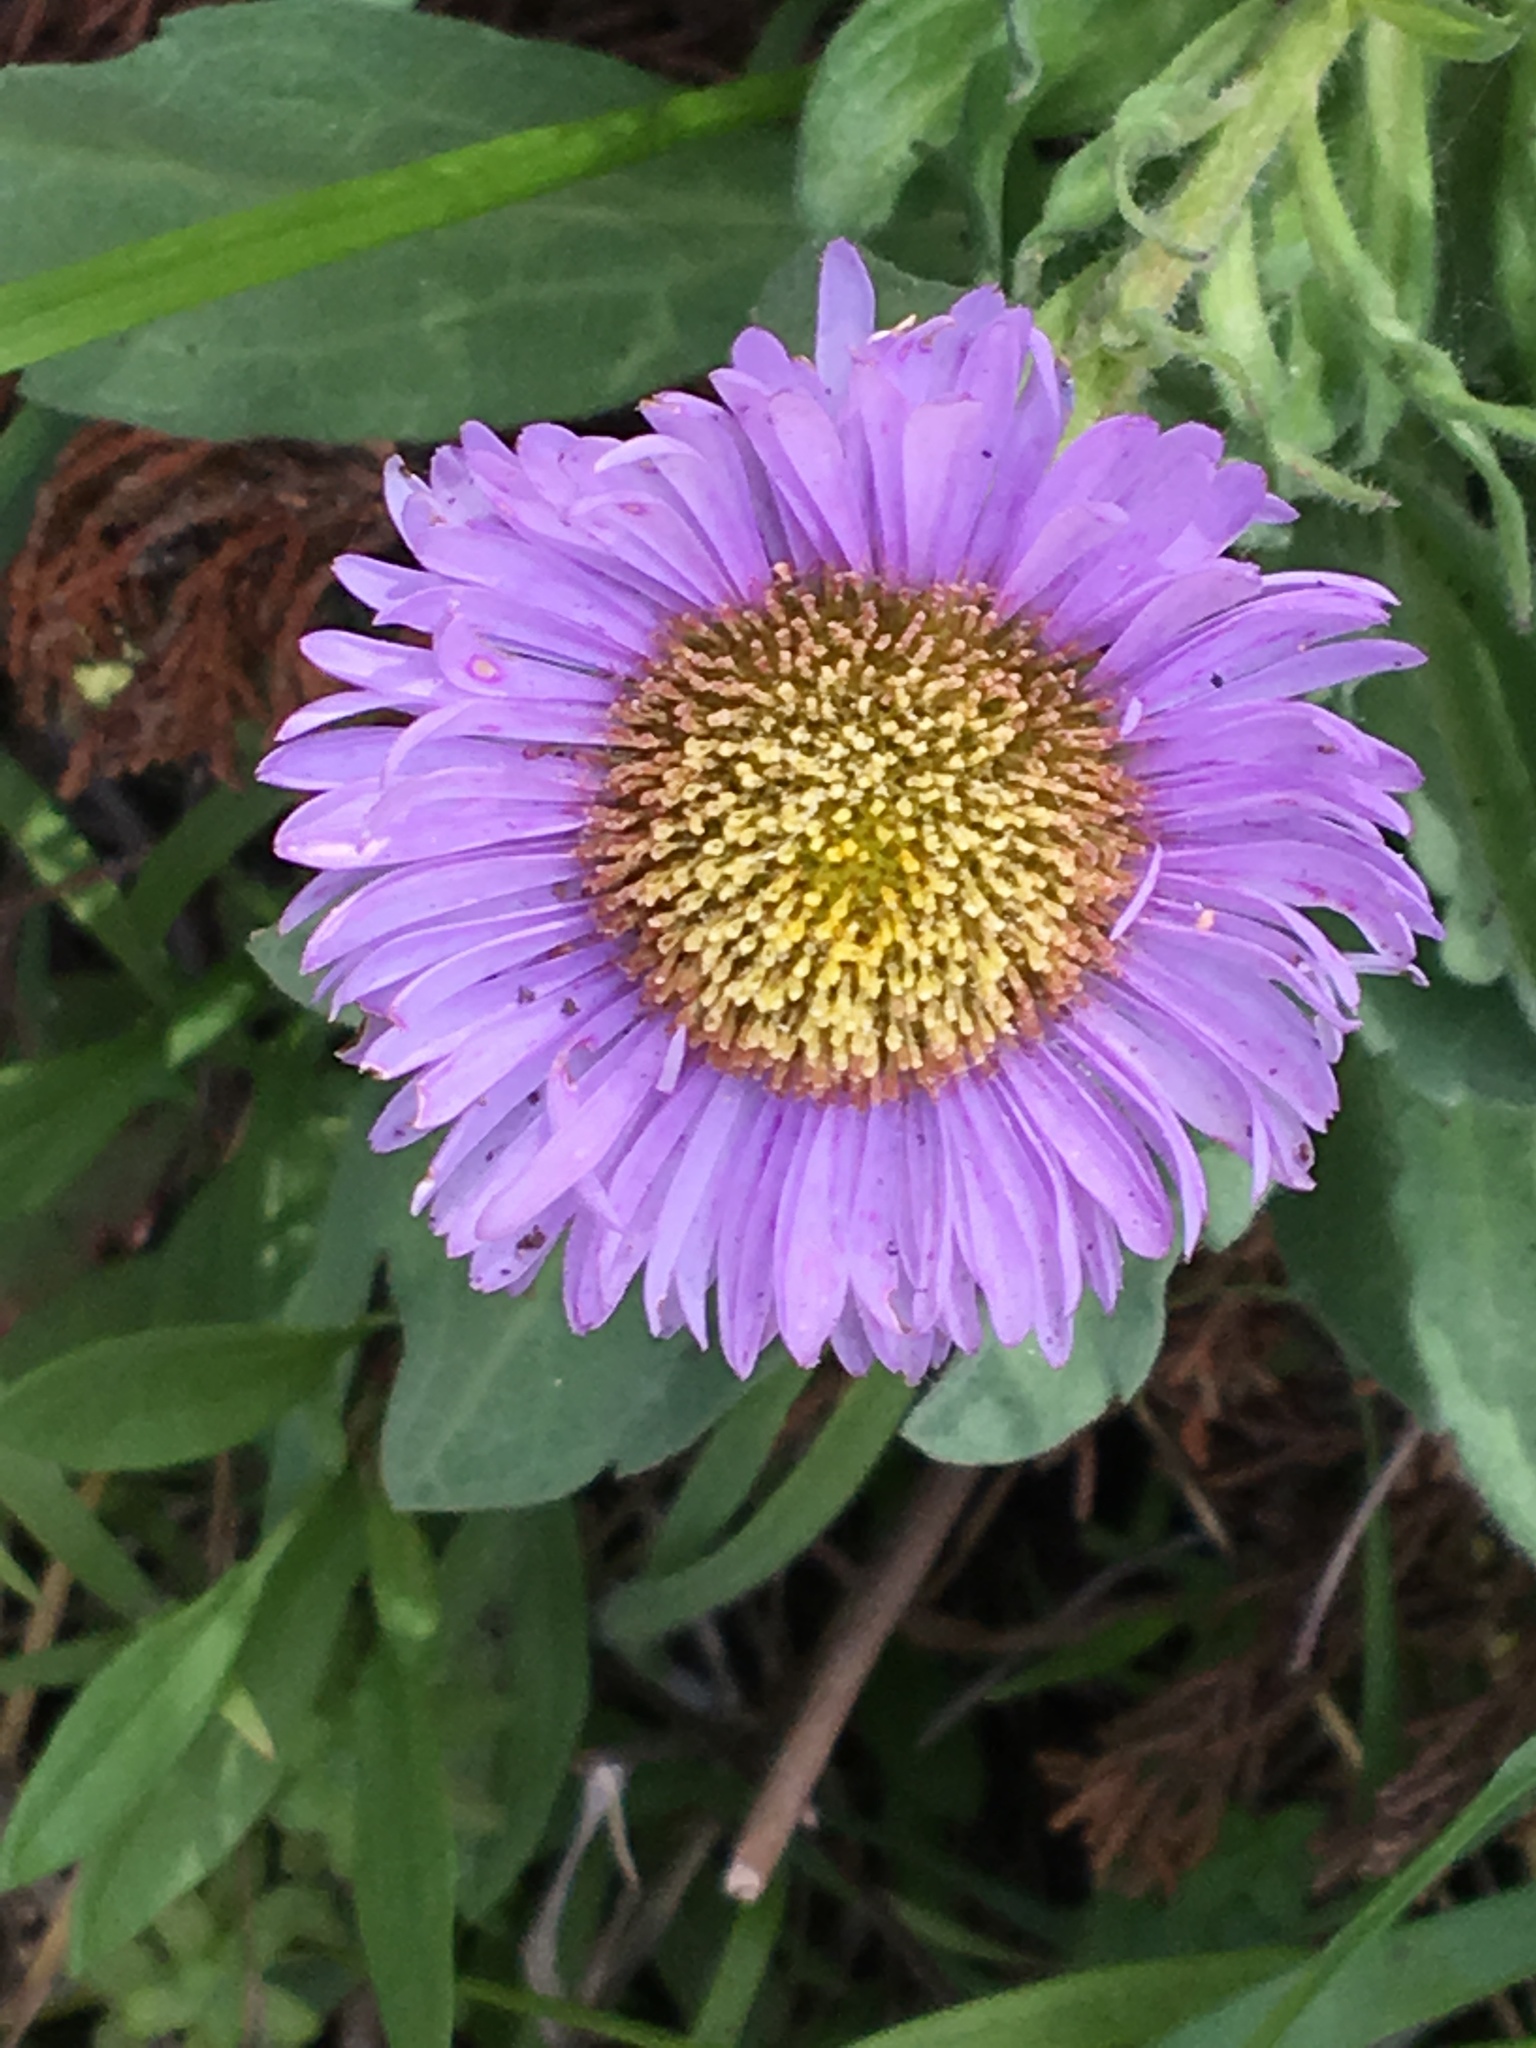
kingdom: Plantae
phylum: Tracheophyta
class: Magnoliopsida
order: Asterales
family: Asteraceae
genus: Erigeron
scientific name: Erigeron glaucus
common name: Seaside daisy
